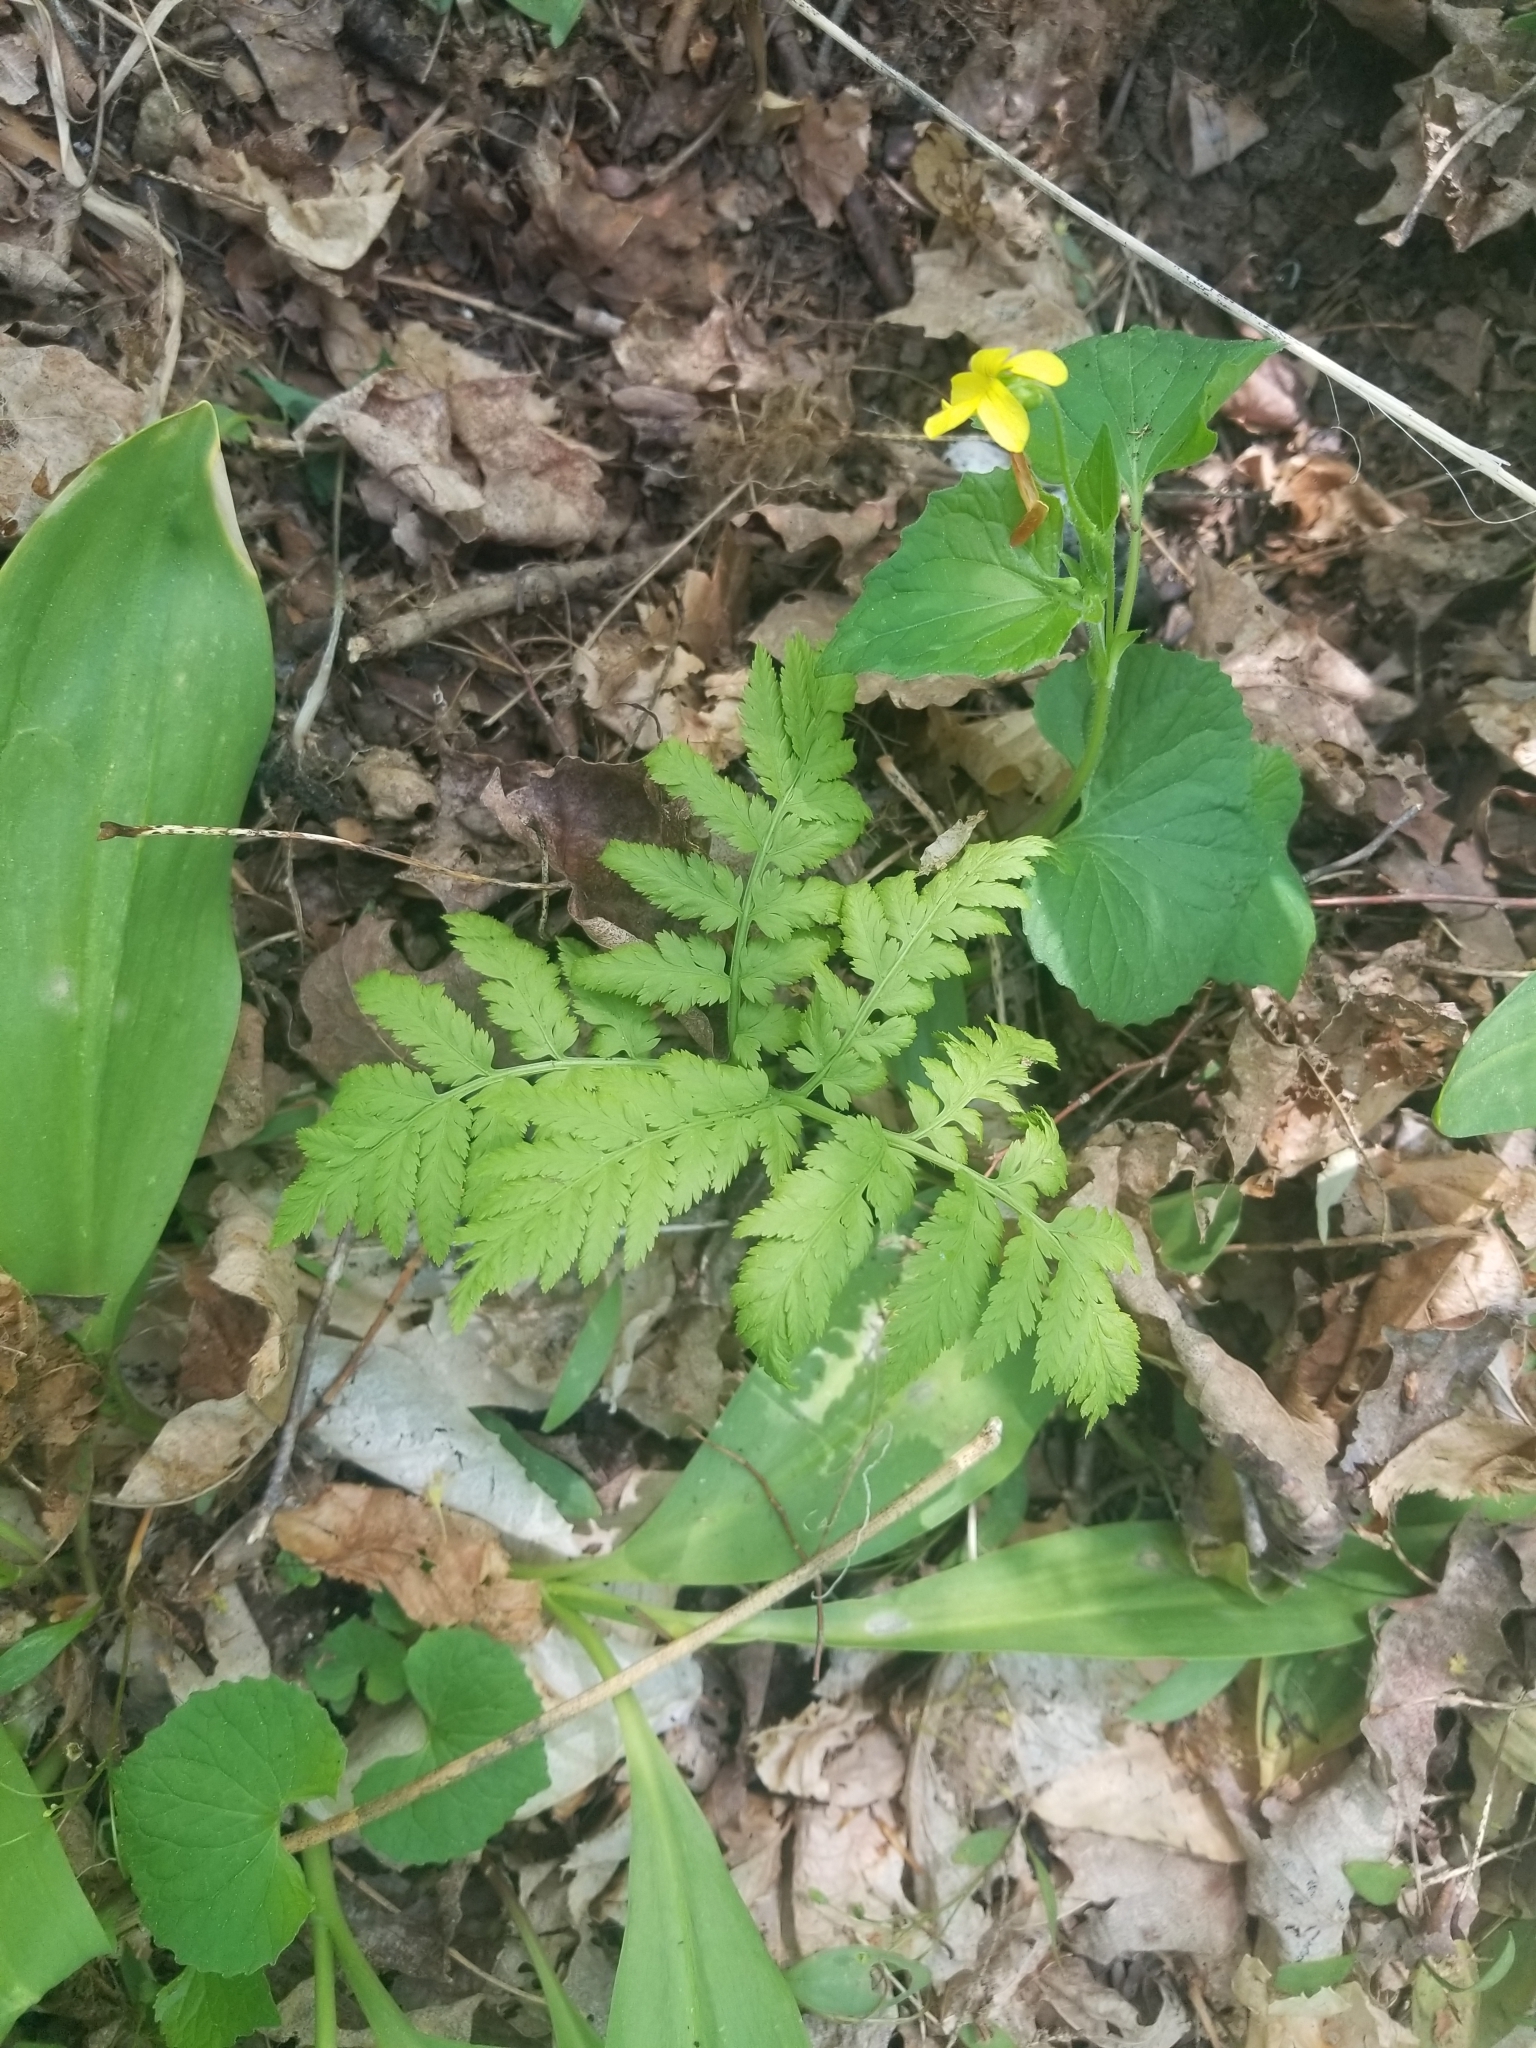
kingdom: Plantae
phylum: Tracheophyta
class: Polypodiopsida
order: Ophioglossales
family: Ophioglossaceae
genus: Botrypus
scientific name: Botrypus virginianus
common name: Common grapefern
